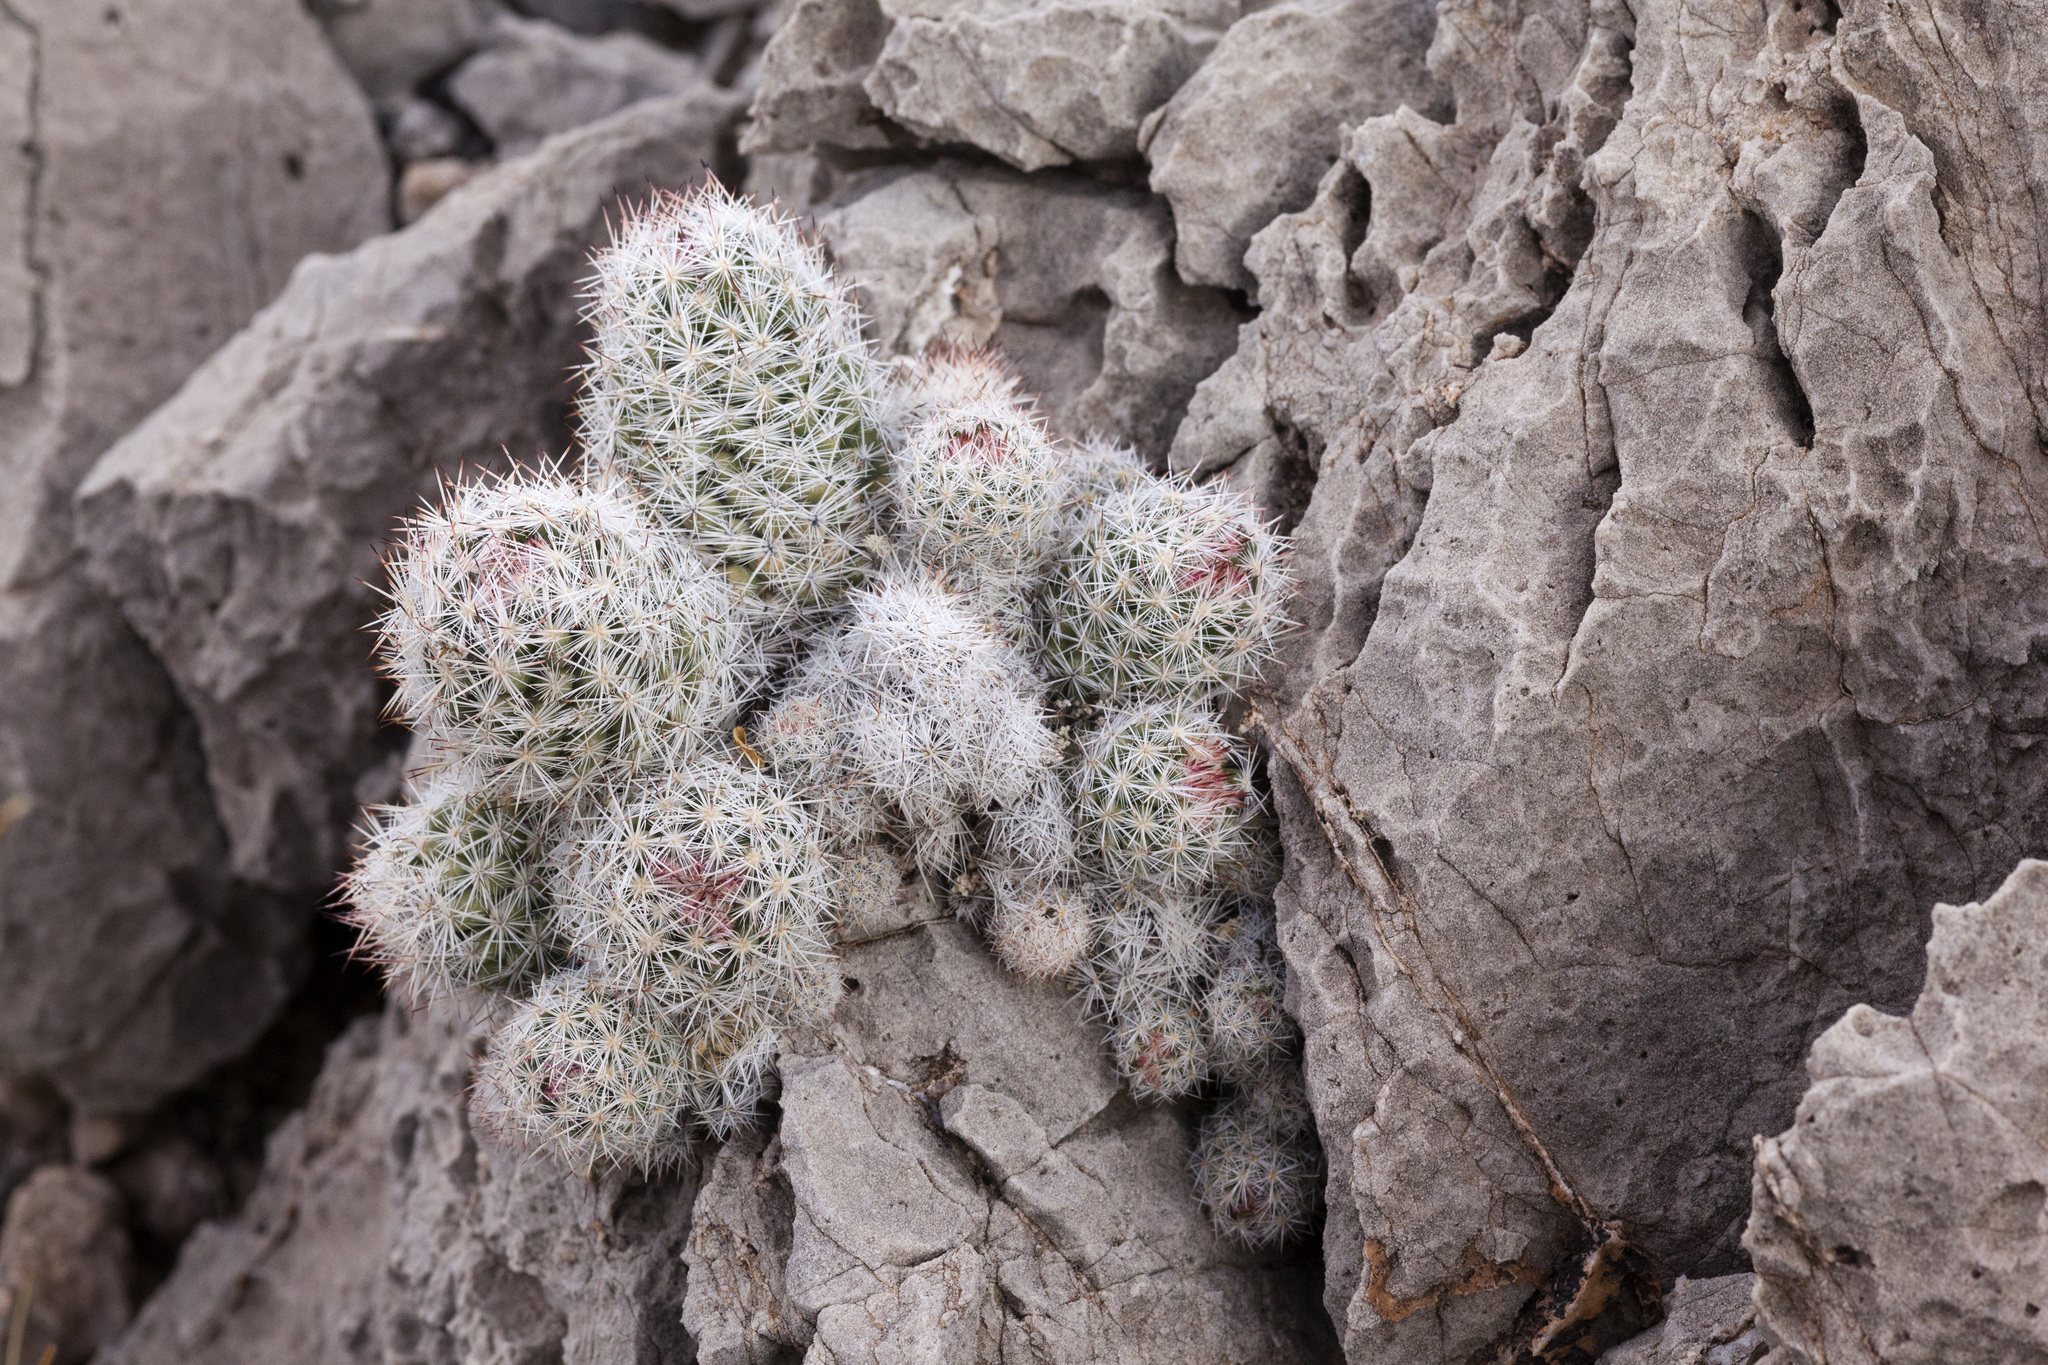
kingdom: Plantae
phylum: Tracheophyta
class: Magnoliopsida
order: Caryophyllales
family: Cactaceae
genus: Pelecyphora
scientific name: Pelecyphora sneedii
